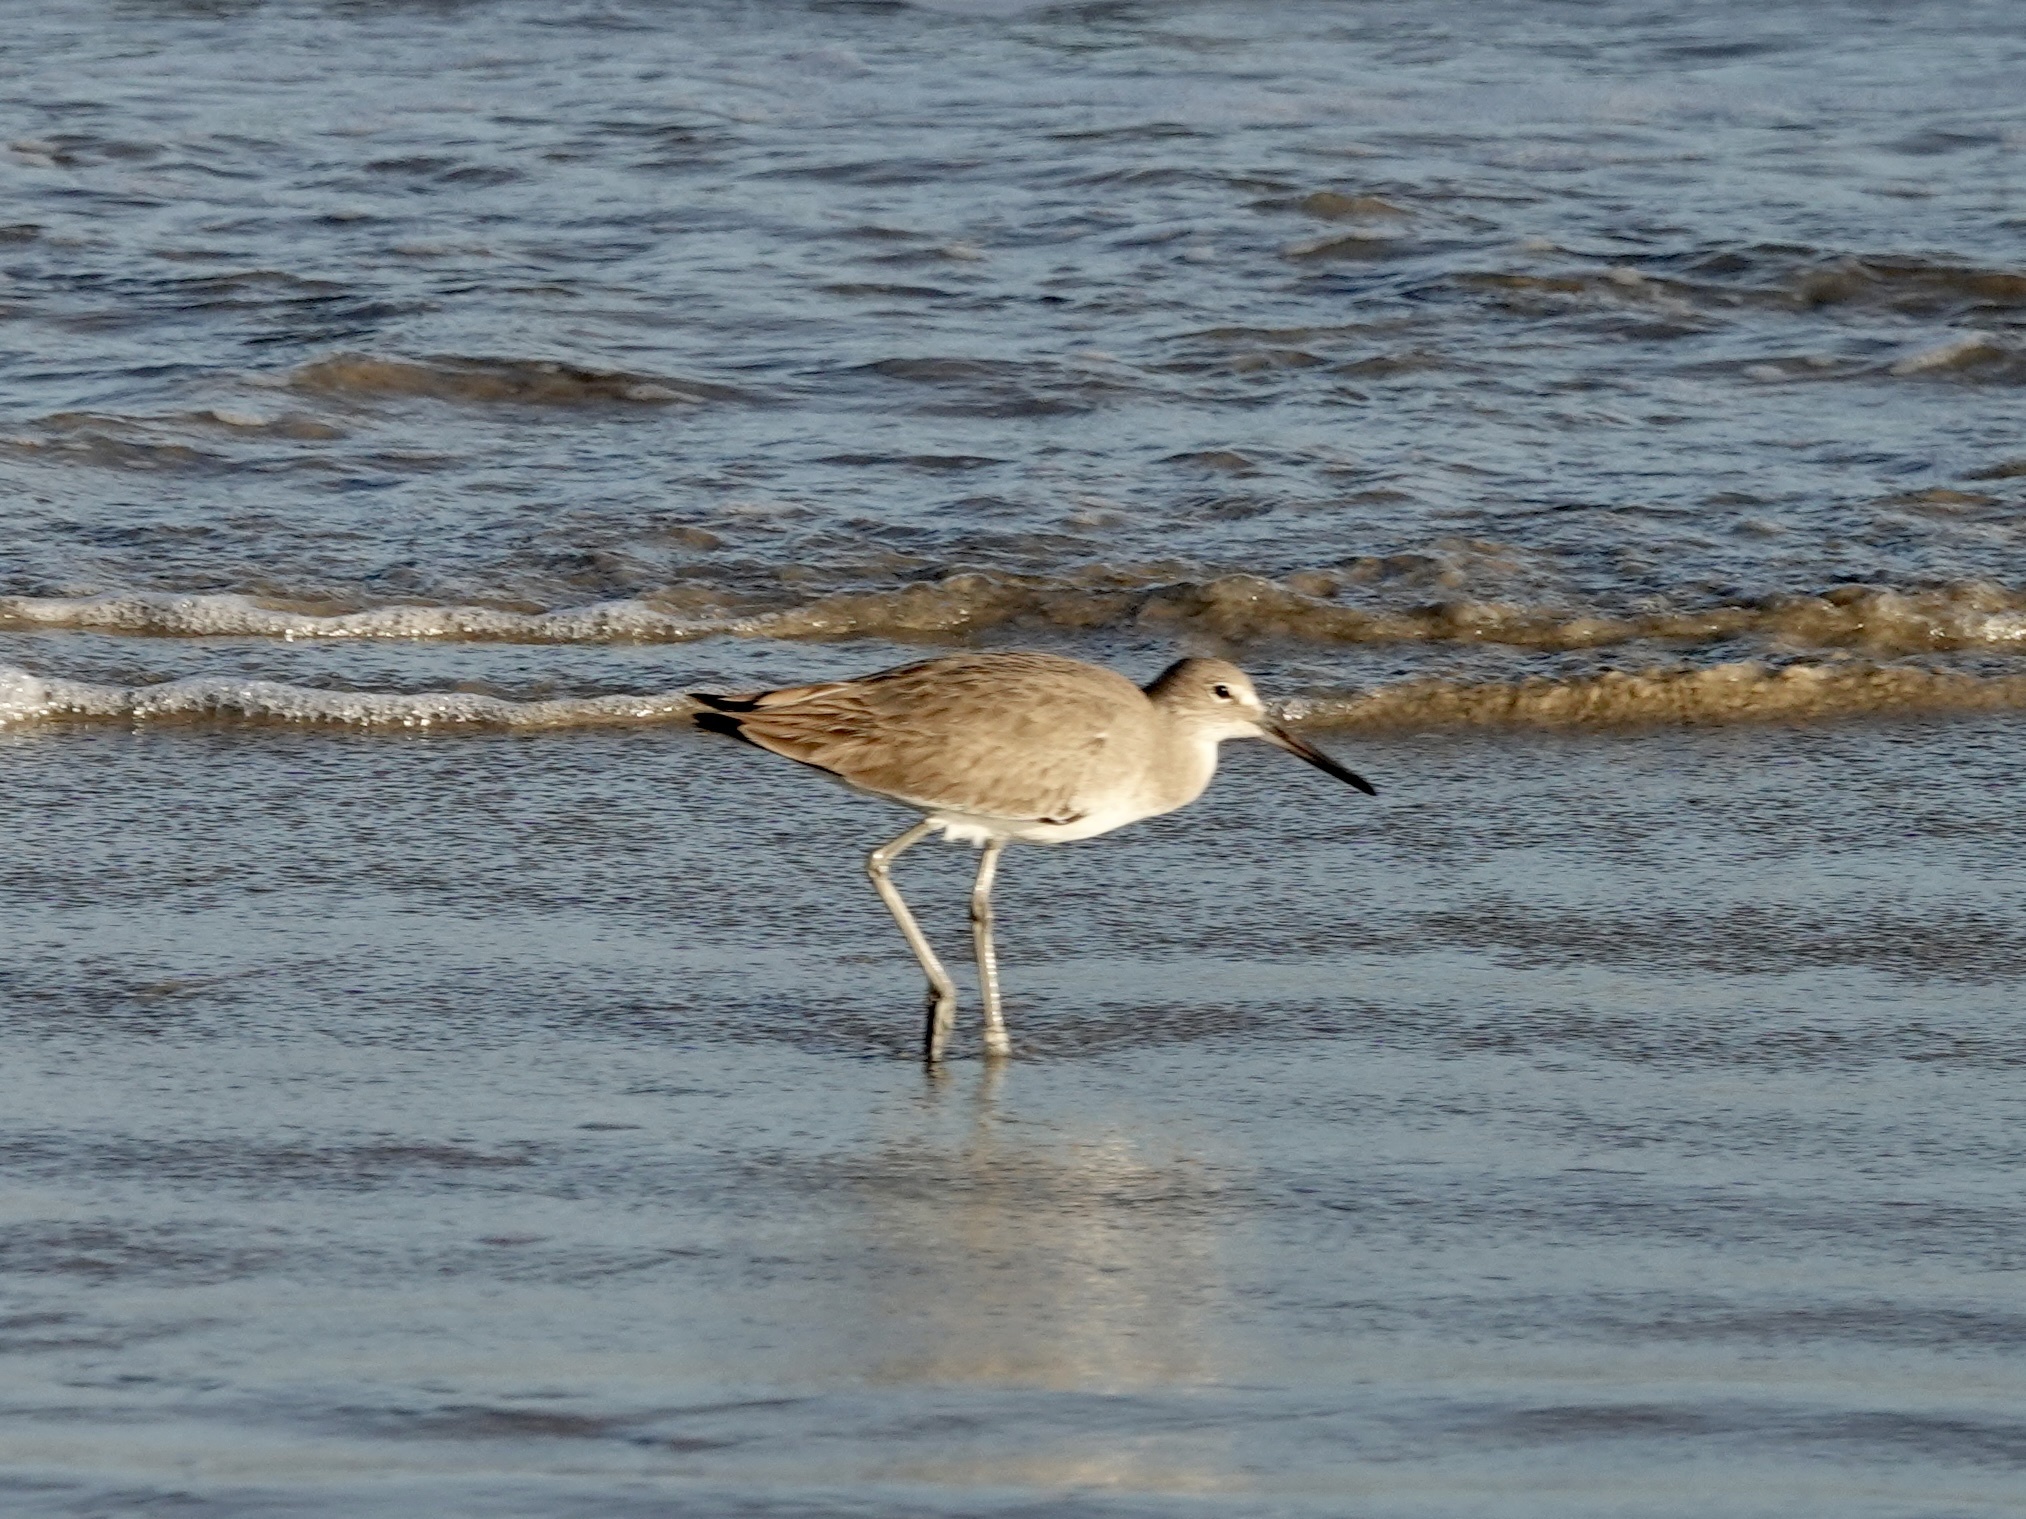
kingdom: Animalia
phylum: Chordata
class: Aves
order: Charadriiformes
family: Scolopacidae
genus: Tringa
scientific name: Tringa semipalmata
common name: Willet
